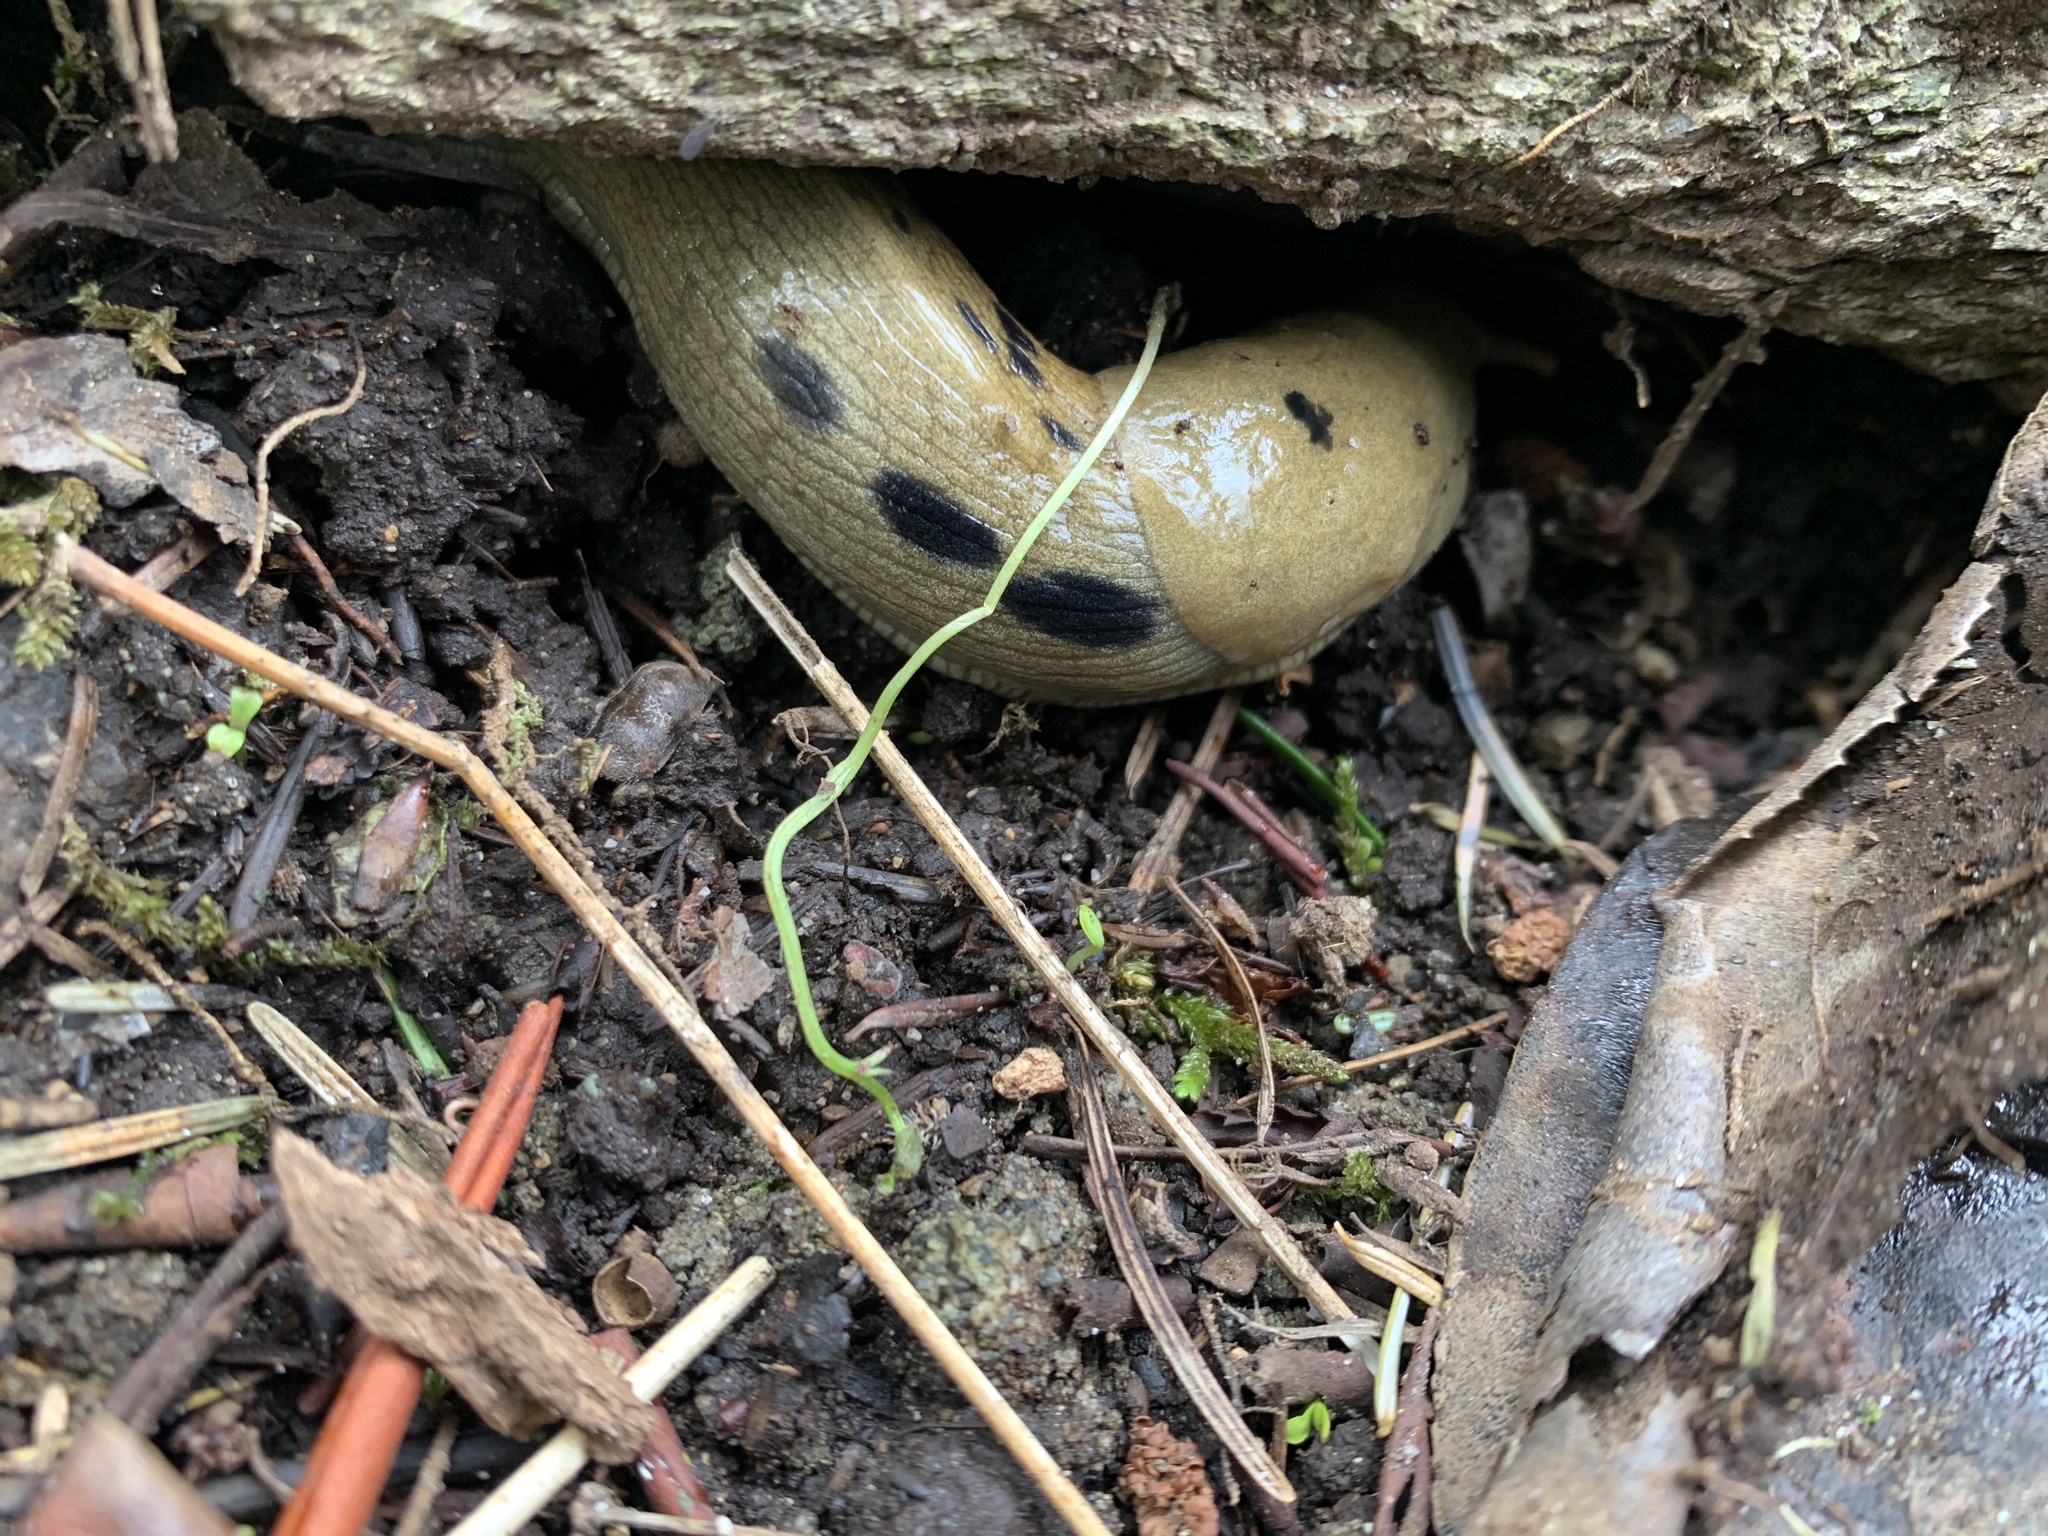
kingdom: Animalia
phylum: Mollusca
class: Gastropoda
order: Stylommatophora
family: Ariolimacidae
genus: Ariolimax
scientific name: Ariolimax columbianus
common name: Pacific banana slug
